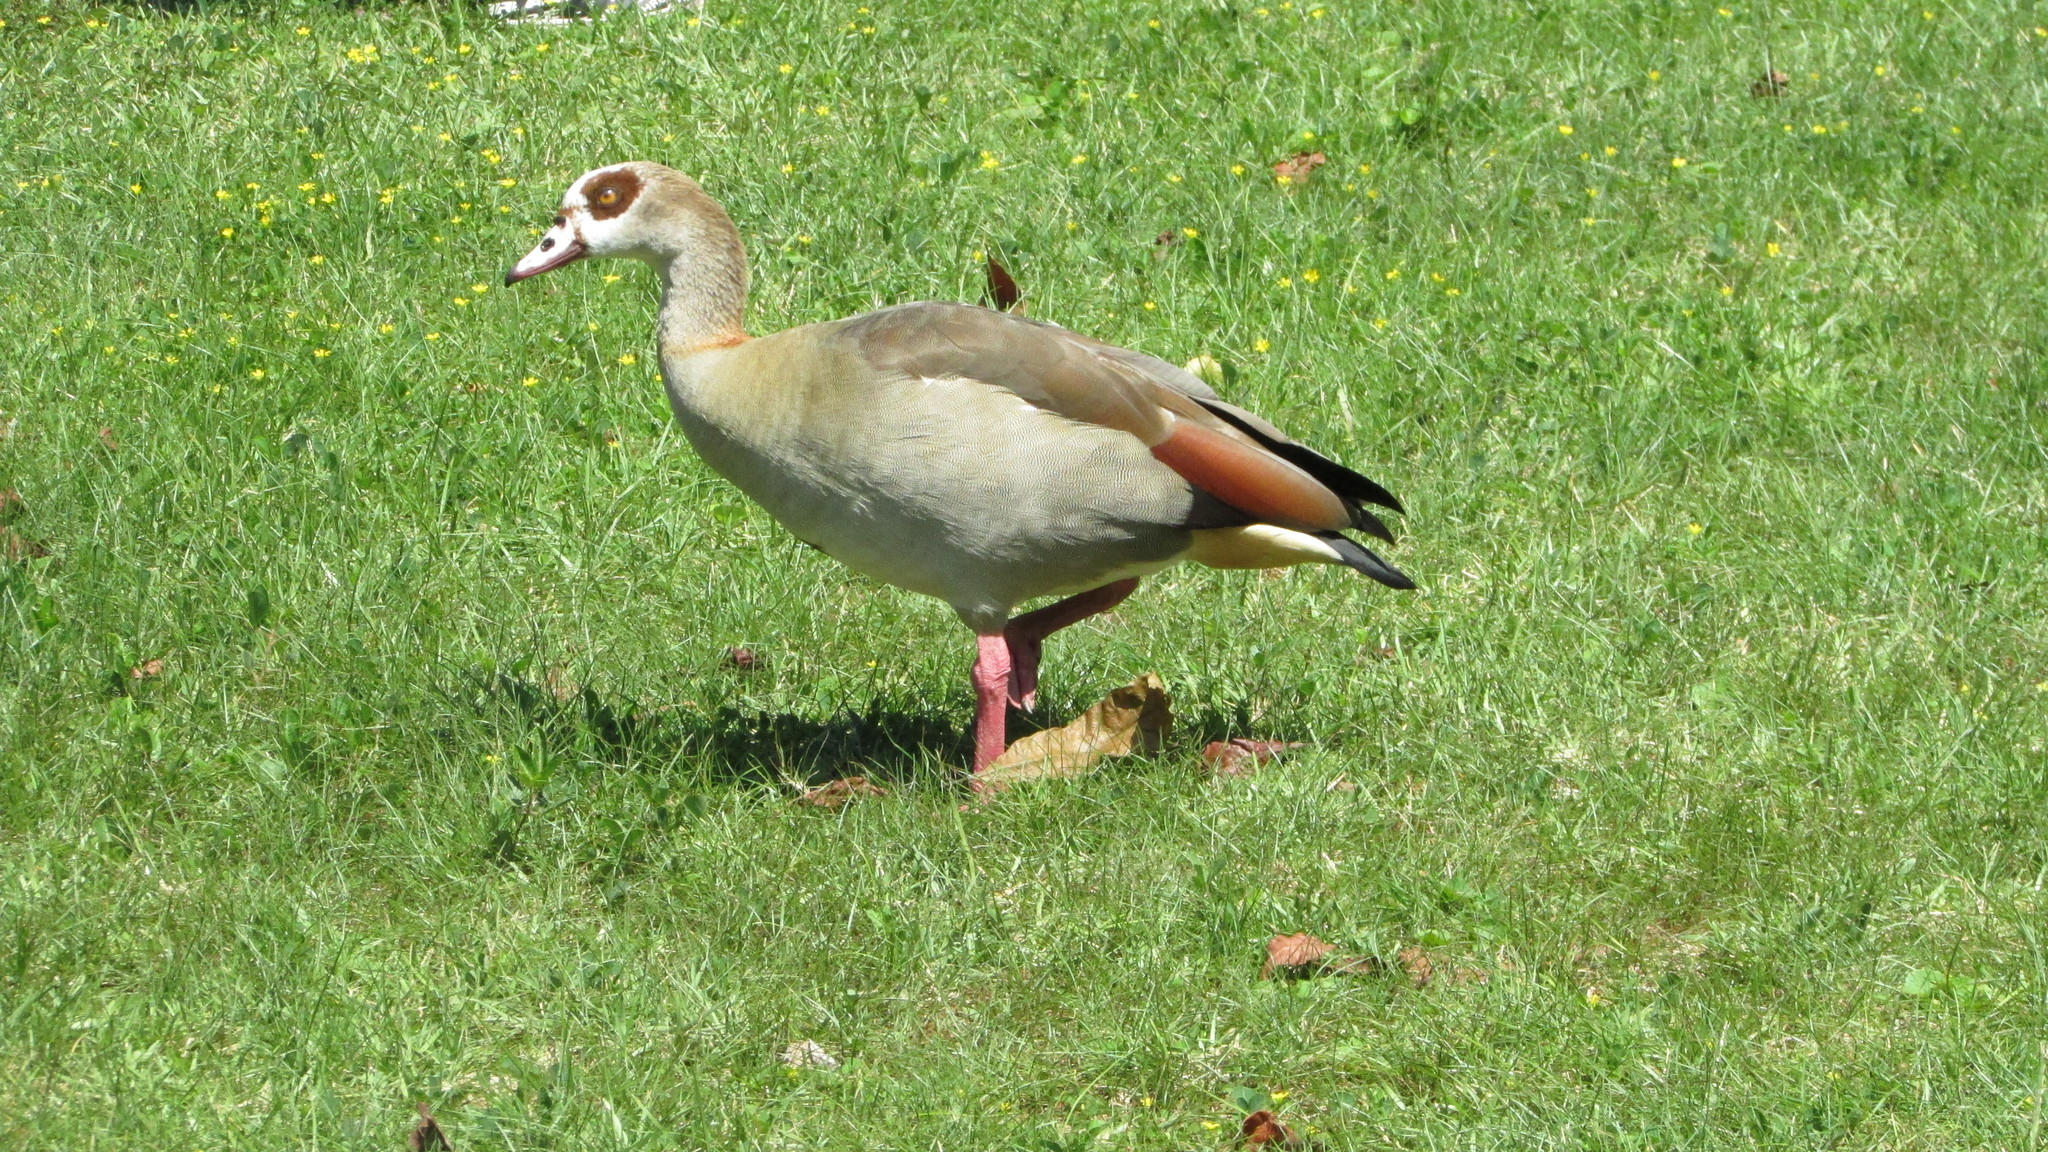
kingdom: Animalia
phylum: Chordata
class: Aves
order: Anseriformes
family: Anatidae
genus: Alopochen
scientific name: Alopochen aegyptiaca
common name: Egyptian goose
